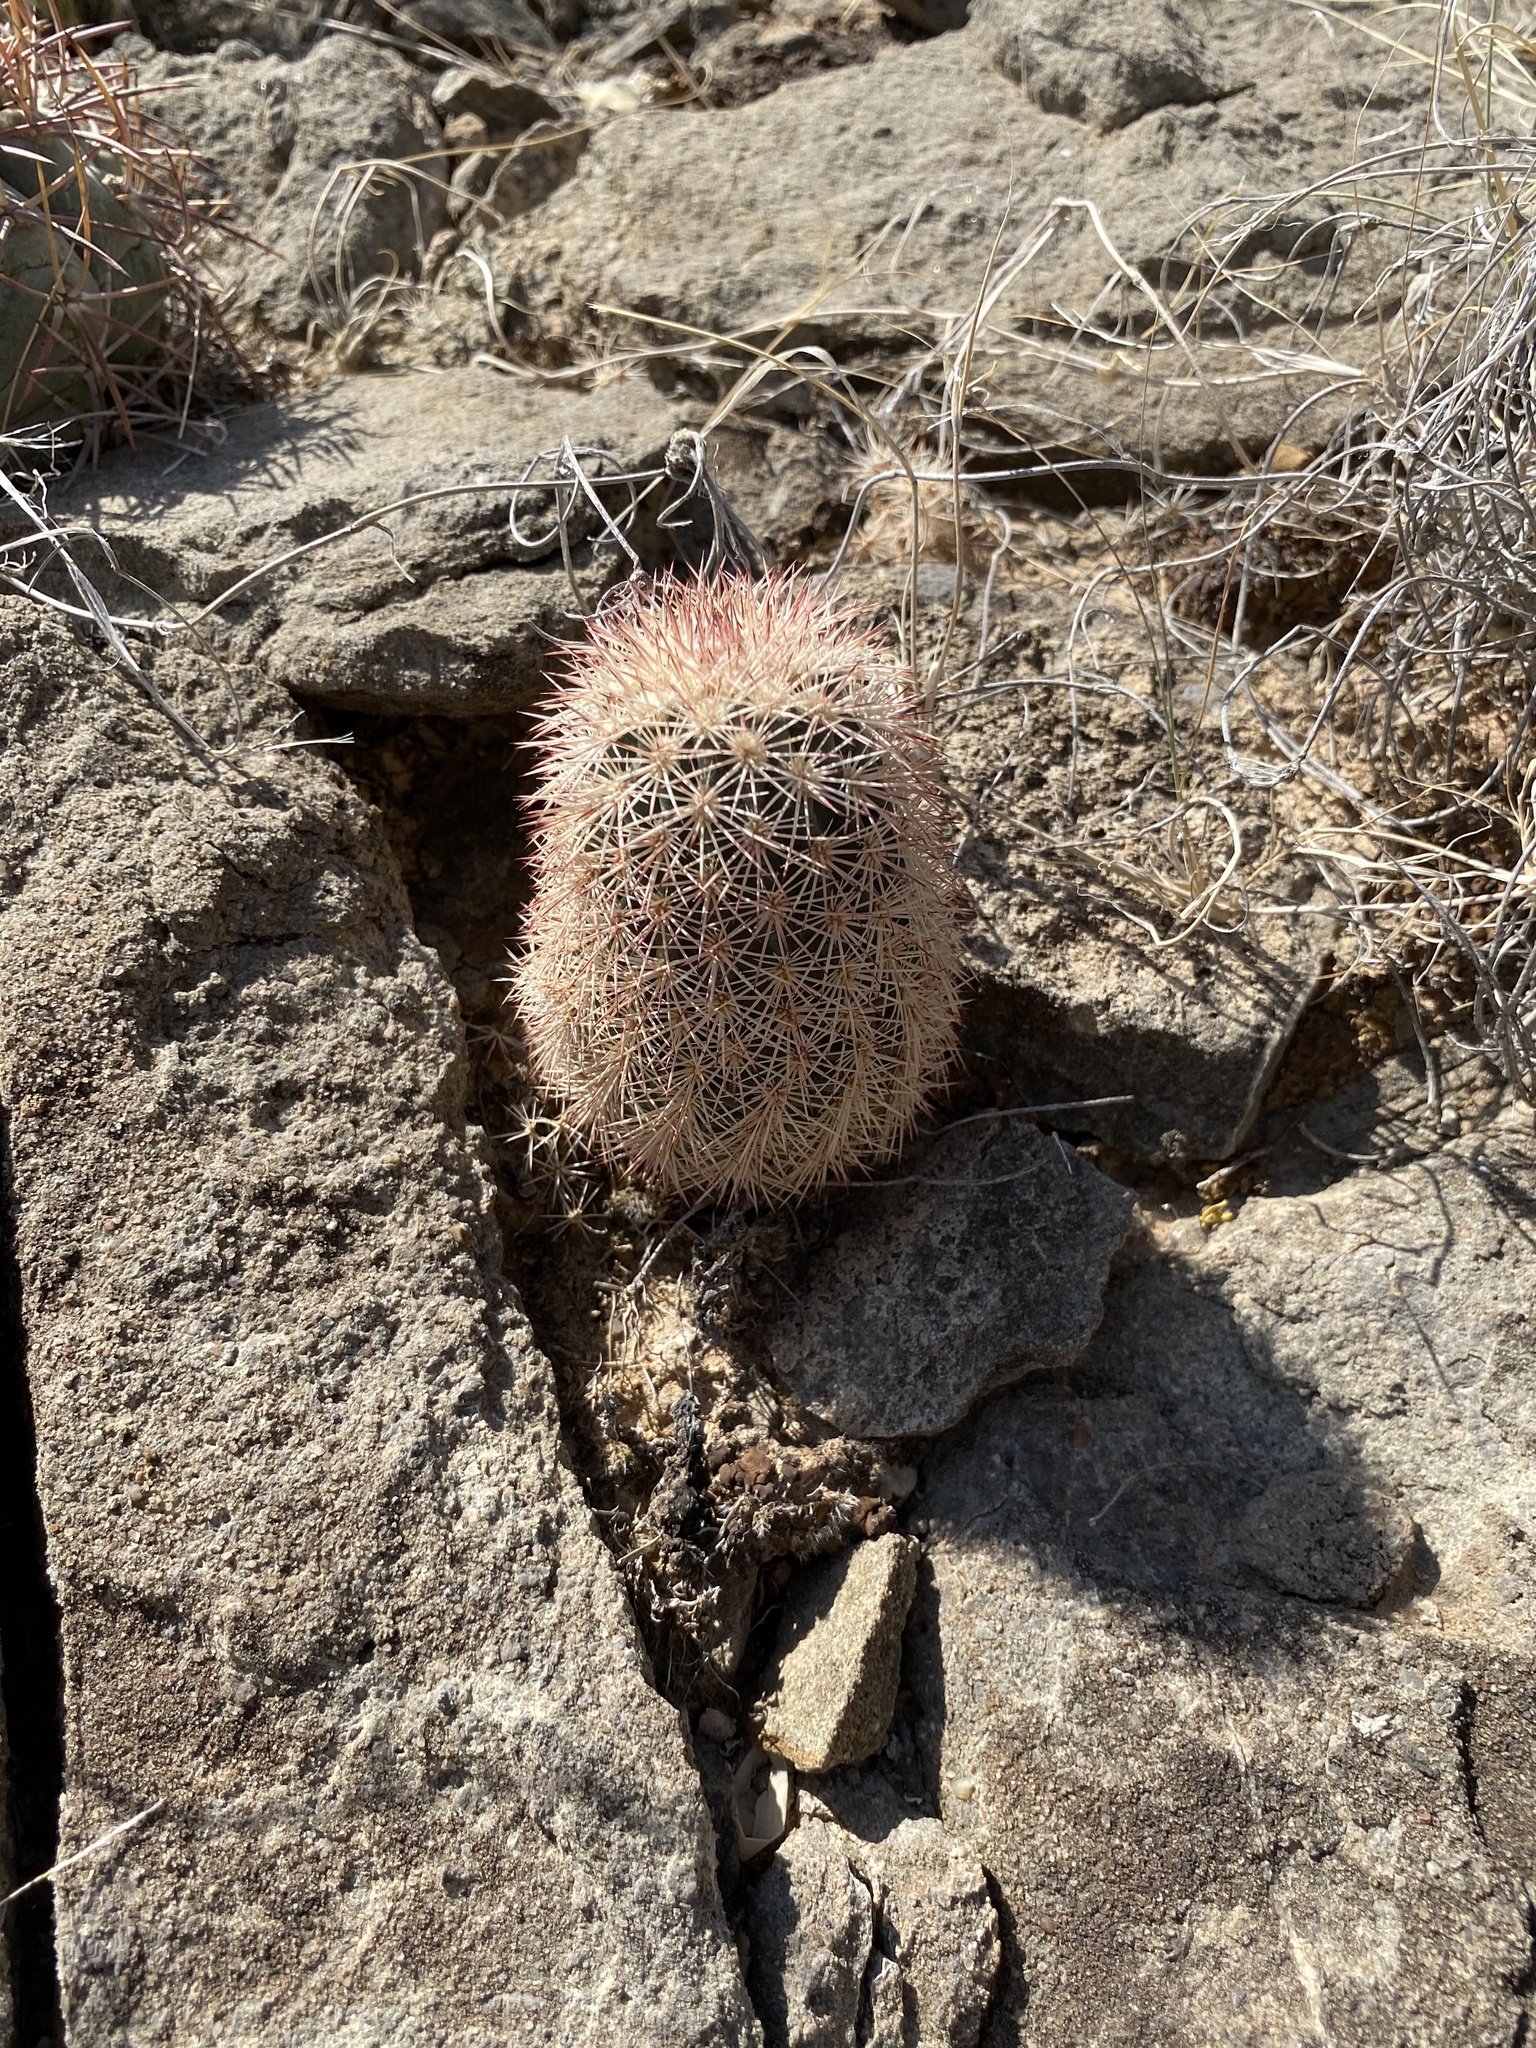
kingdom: Plantae
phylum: Tracheophyta
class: Magnoliopsida
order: Caryophyllales
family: Cactaceae
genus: Echinocereus
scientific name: Echinocereus dasyacanthus
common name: Spiny hedgehog cactus
